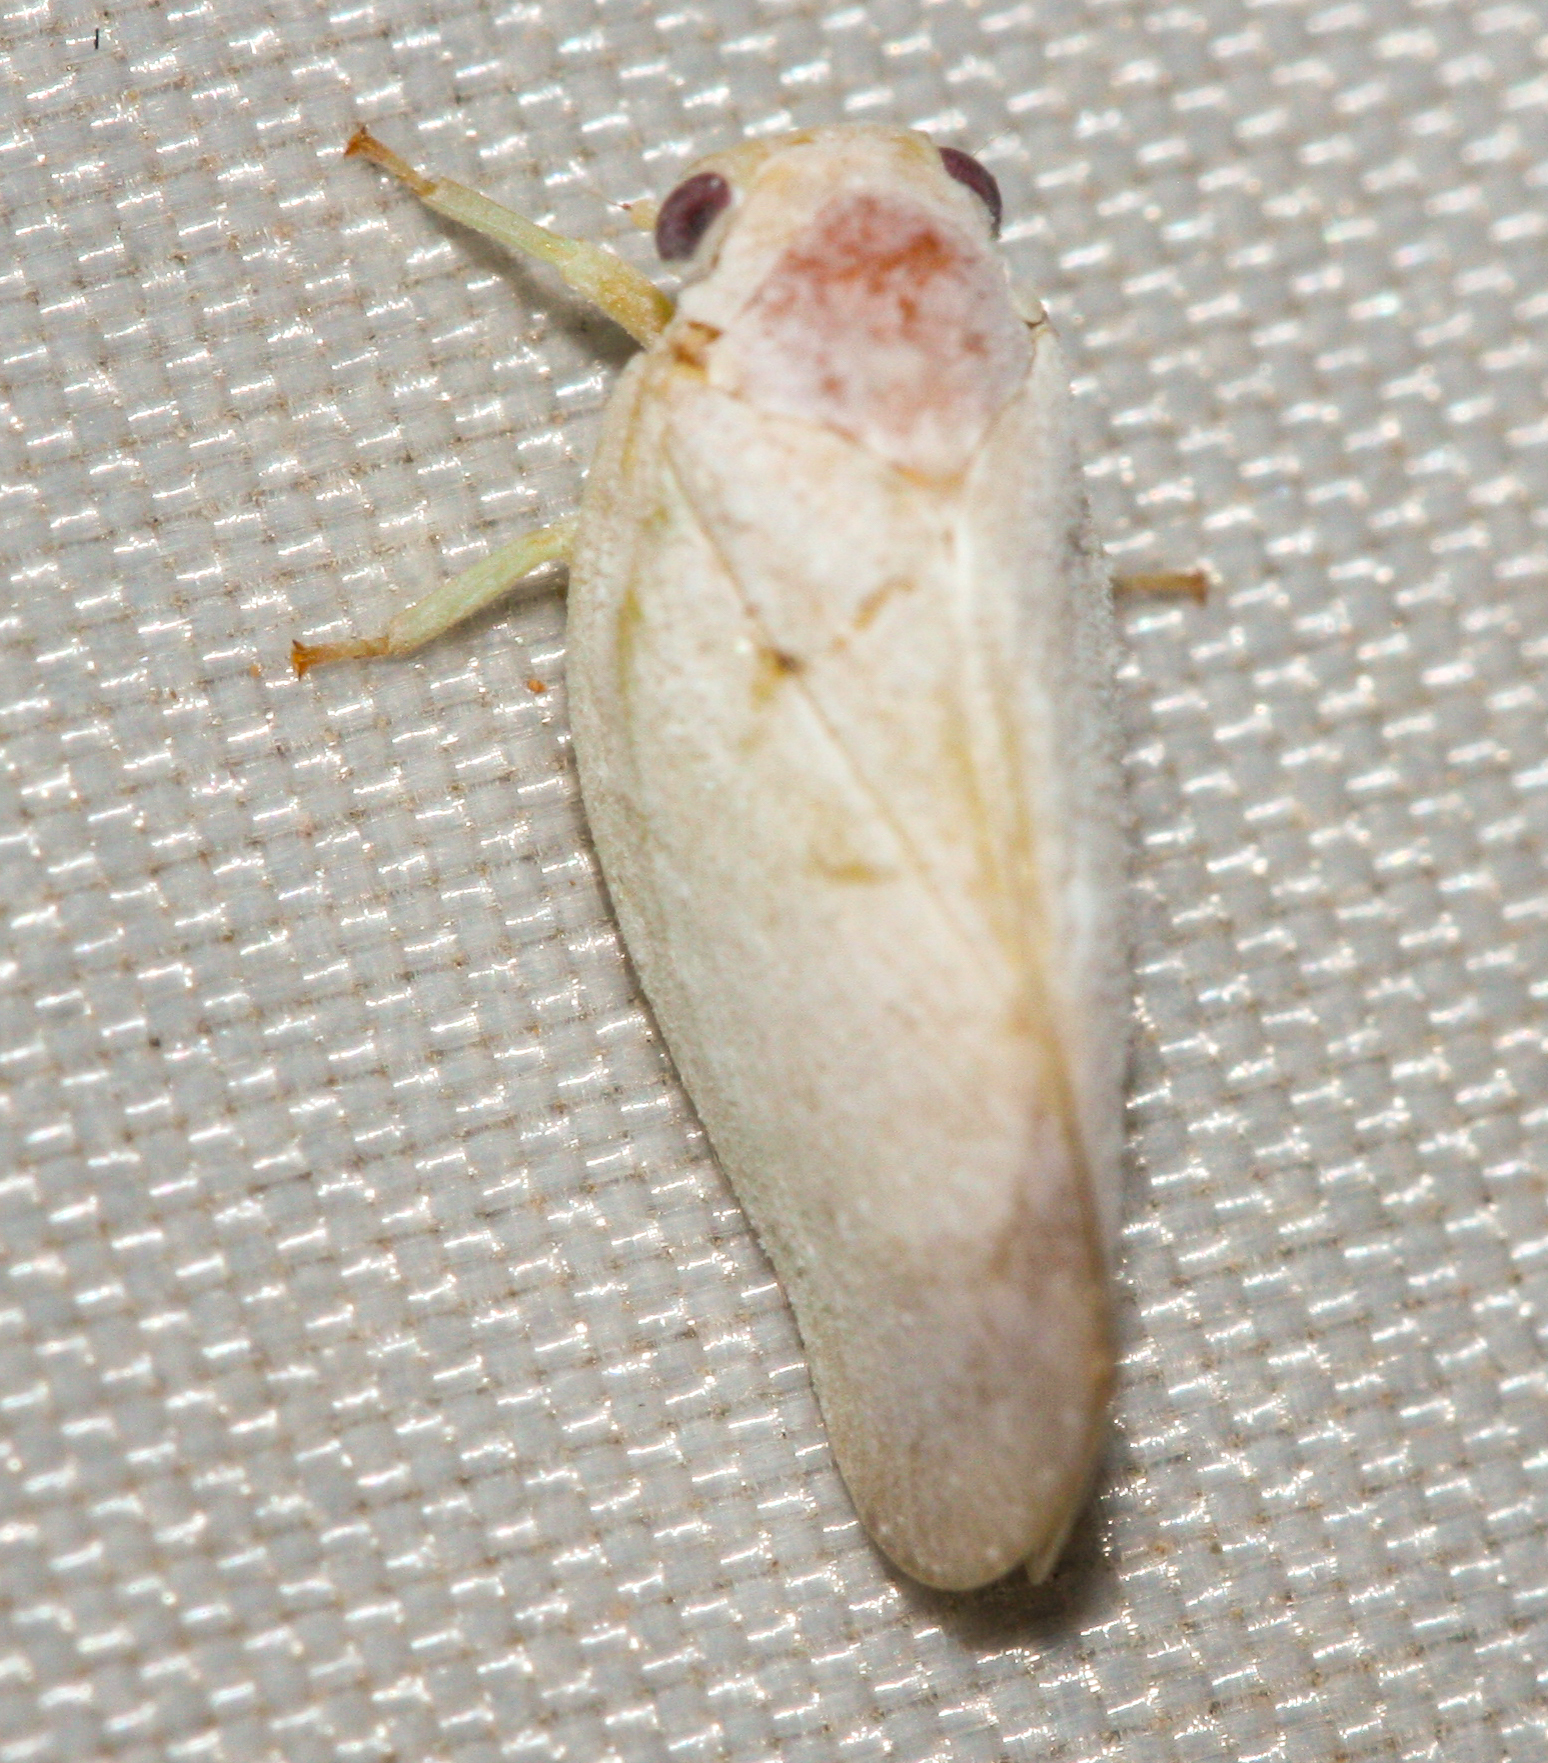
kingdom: Animalia
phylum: Arthropoda
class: Insecta
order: Hemiptera
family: Flatidae
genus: Flatormenis
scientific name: Flatormenis saucia
